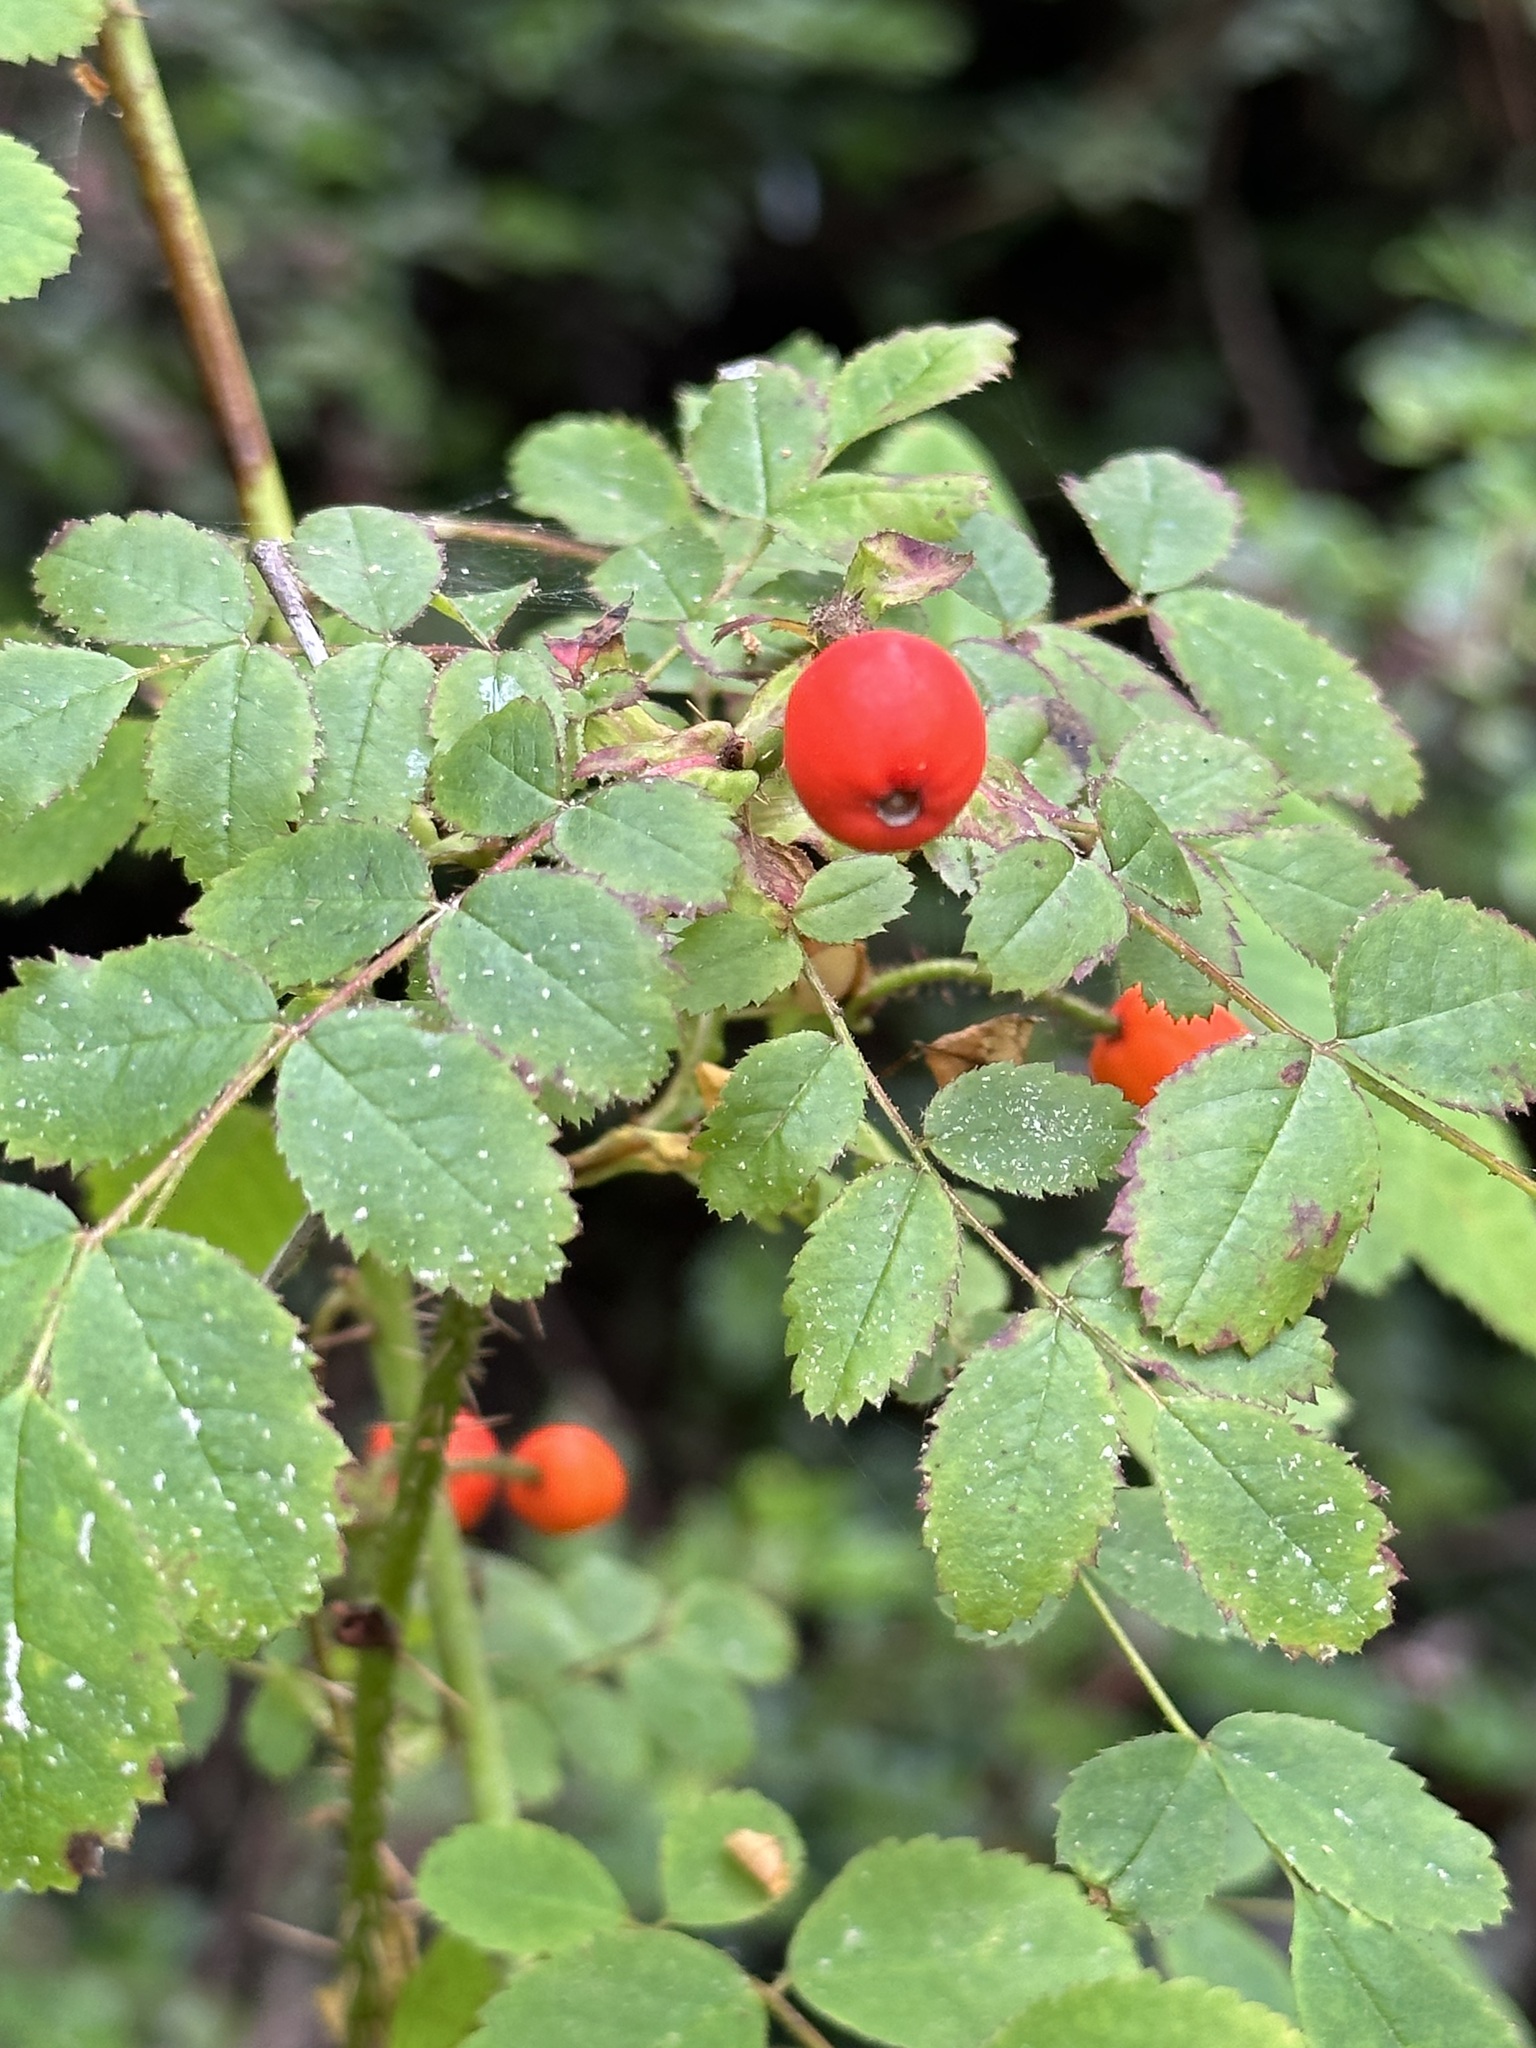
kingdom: Plantae
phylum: Tracheophyta
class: Magnoliopsida
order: Rosales
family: Rosaceae
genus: Rosa
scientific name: Rosa gymnocarpa
